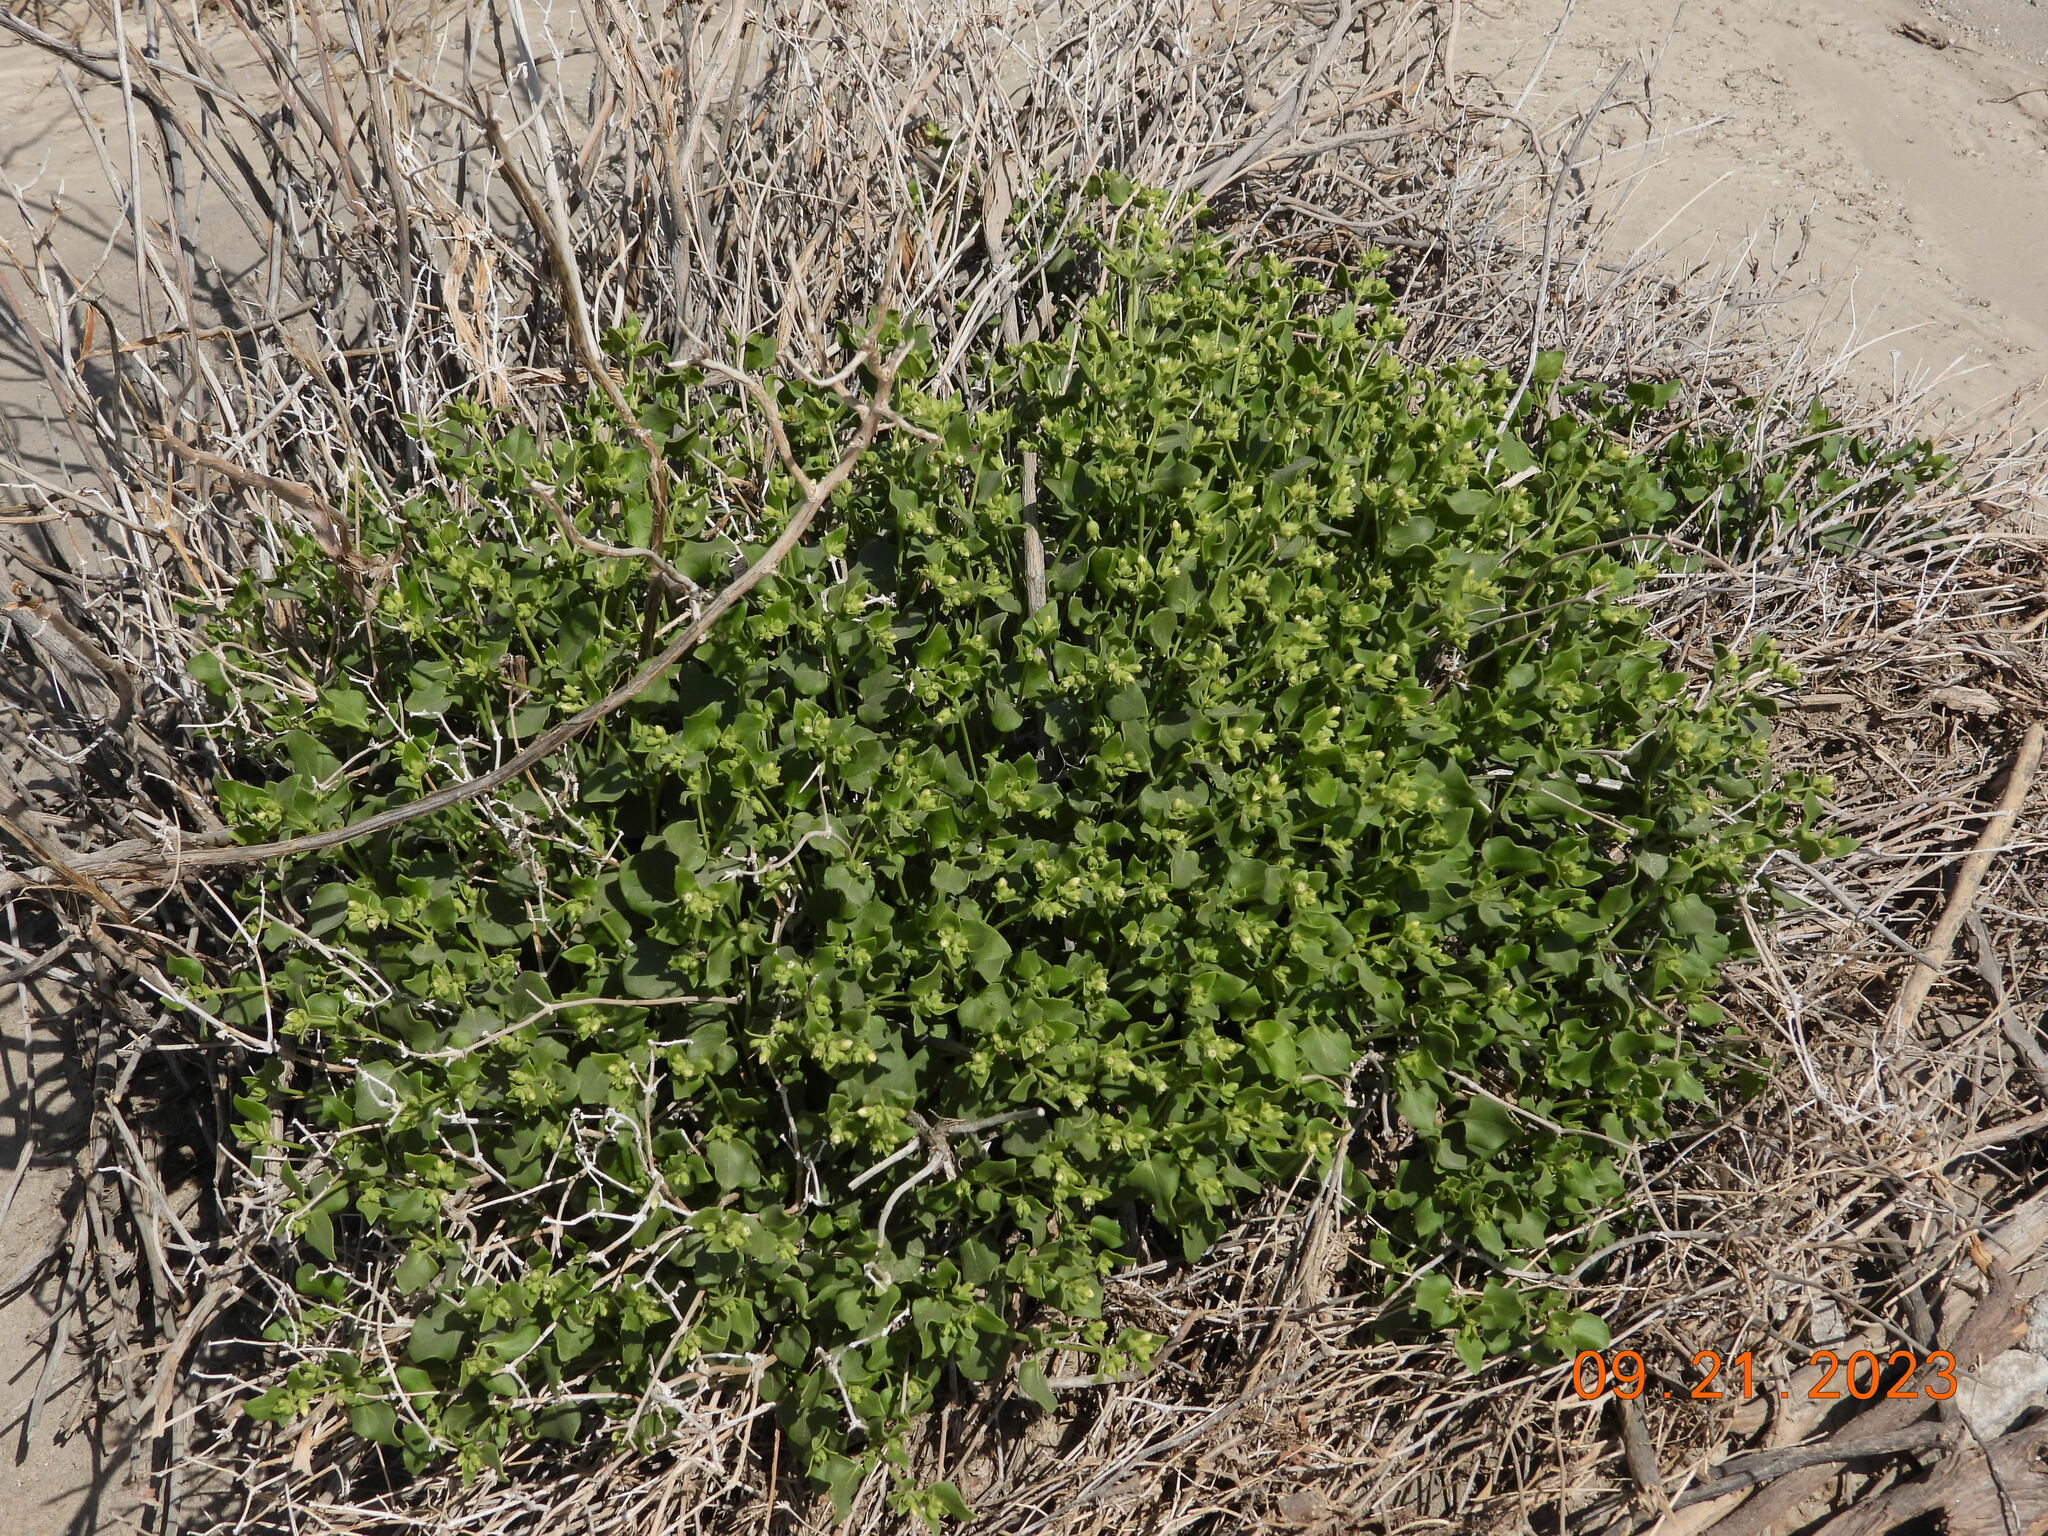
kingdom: Plantae
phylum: Tracheophyta
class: Magnoliopsida
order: Caryophyllales
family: Nyctaginaceae
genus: Mirabilis
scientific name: Mirabilis laevis
